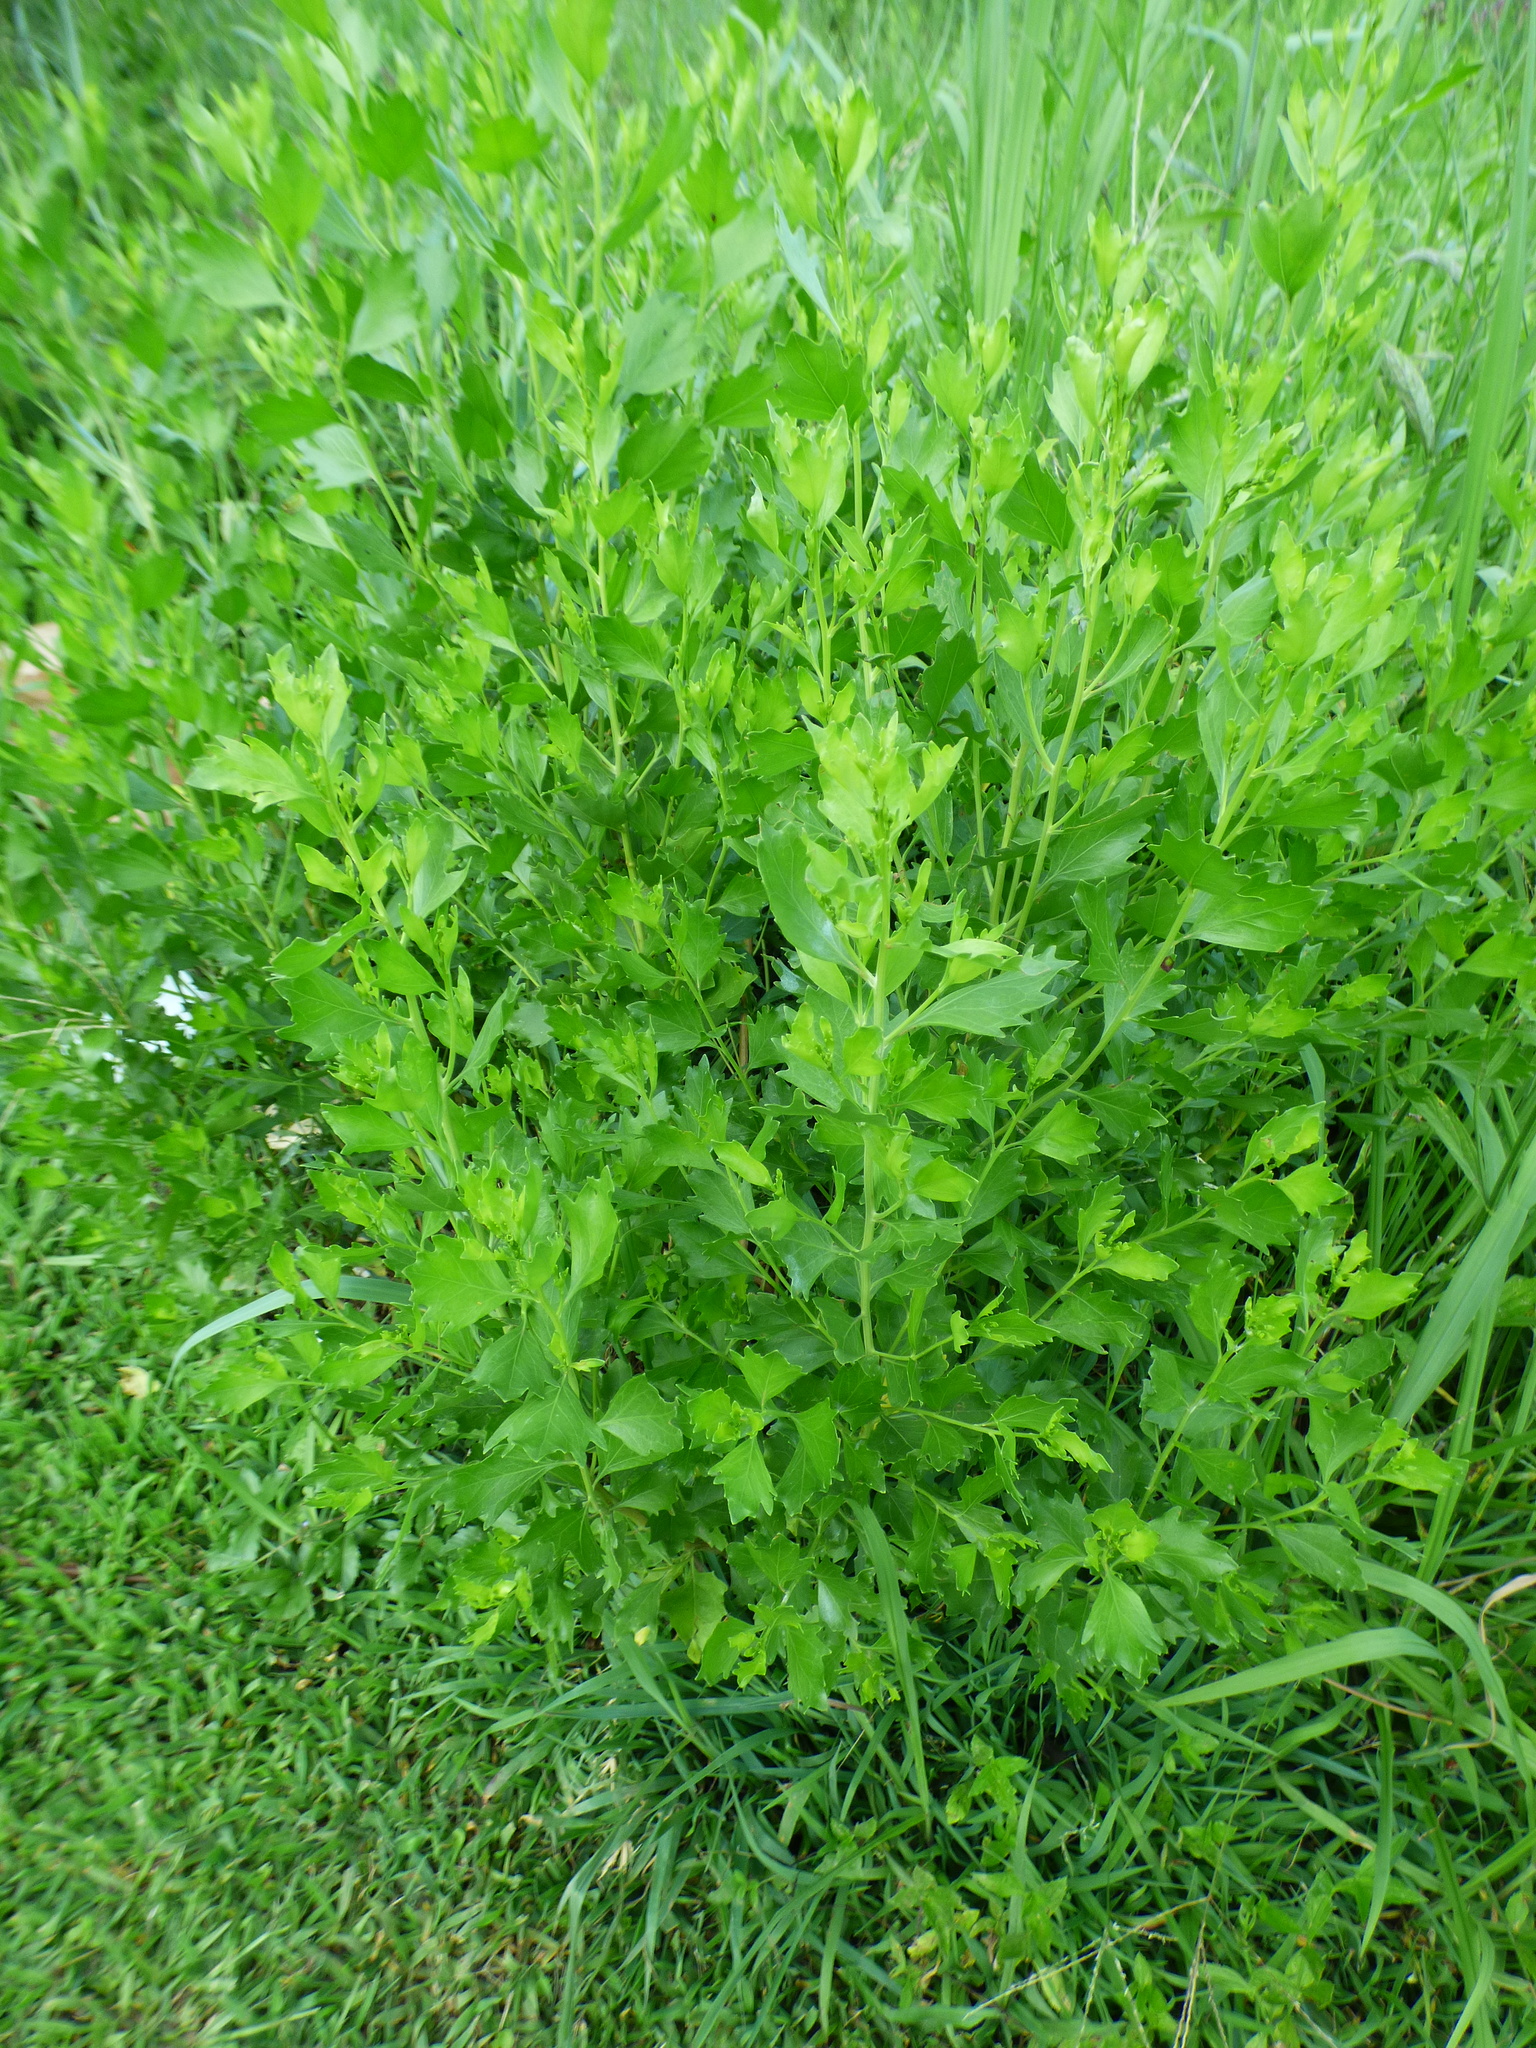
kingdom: Plantae
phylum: Tracheophyta
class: Magnoliopsida
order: Asterales
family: Asteraceae
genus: Baccharis
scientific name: Baccharis halimifolia
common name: Eastern baccharis
